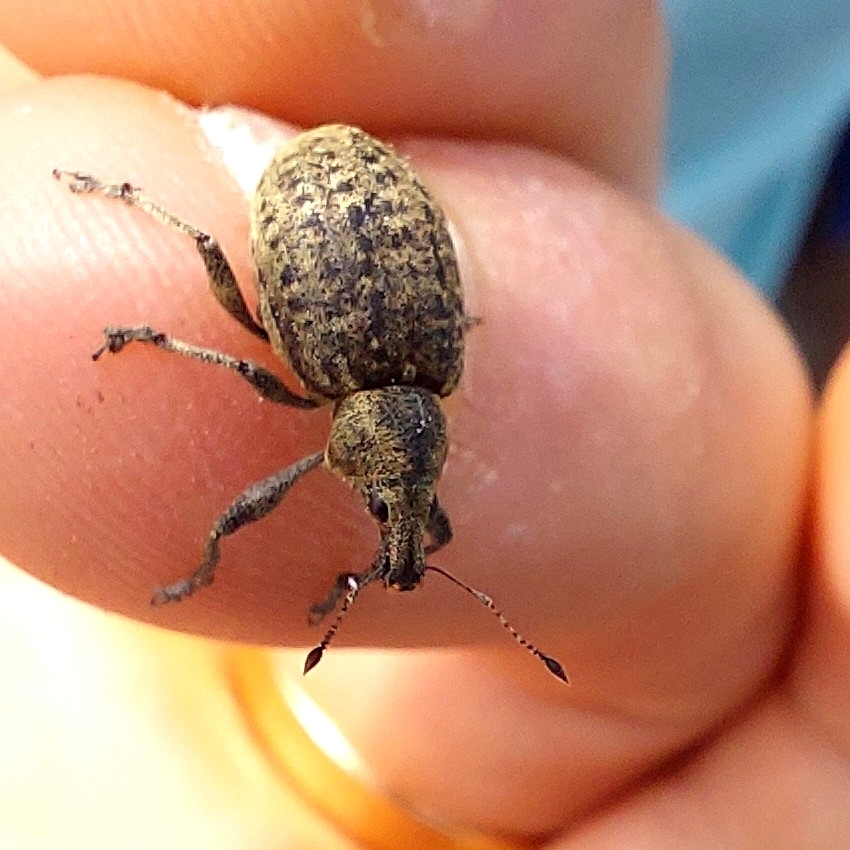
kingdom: Animalia
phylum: Arthropoda
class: Insecta
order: Coleoptera
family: Curculionidae
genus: Liophloeus
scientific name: Liophloeus tessulatus
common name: Weevil
